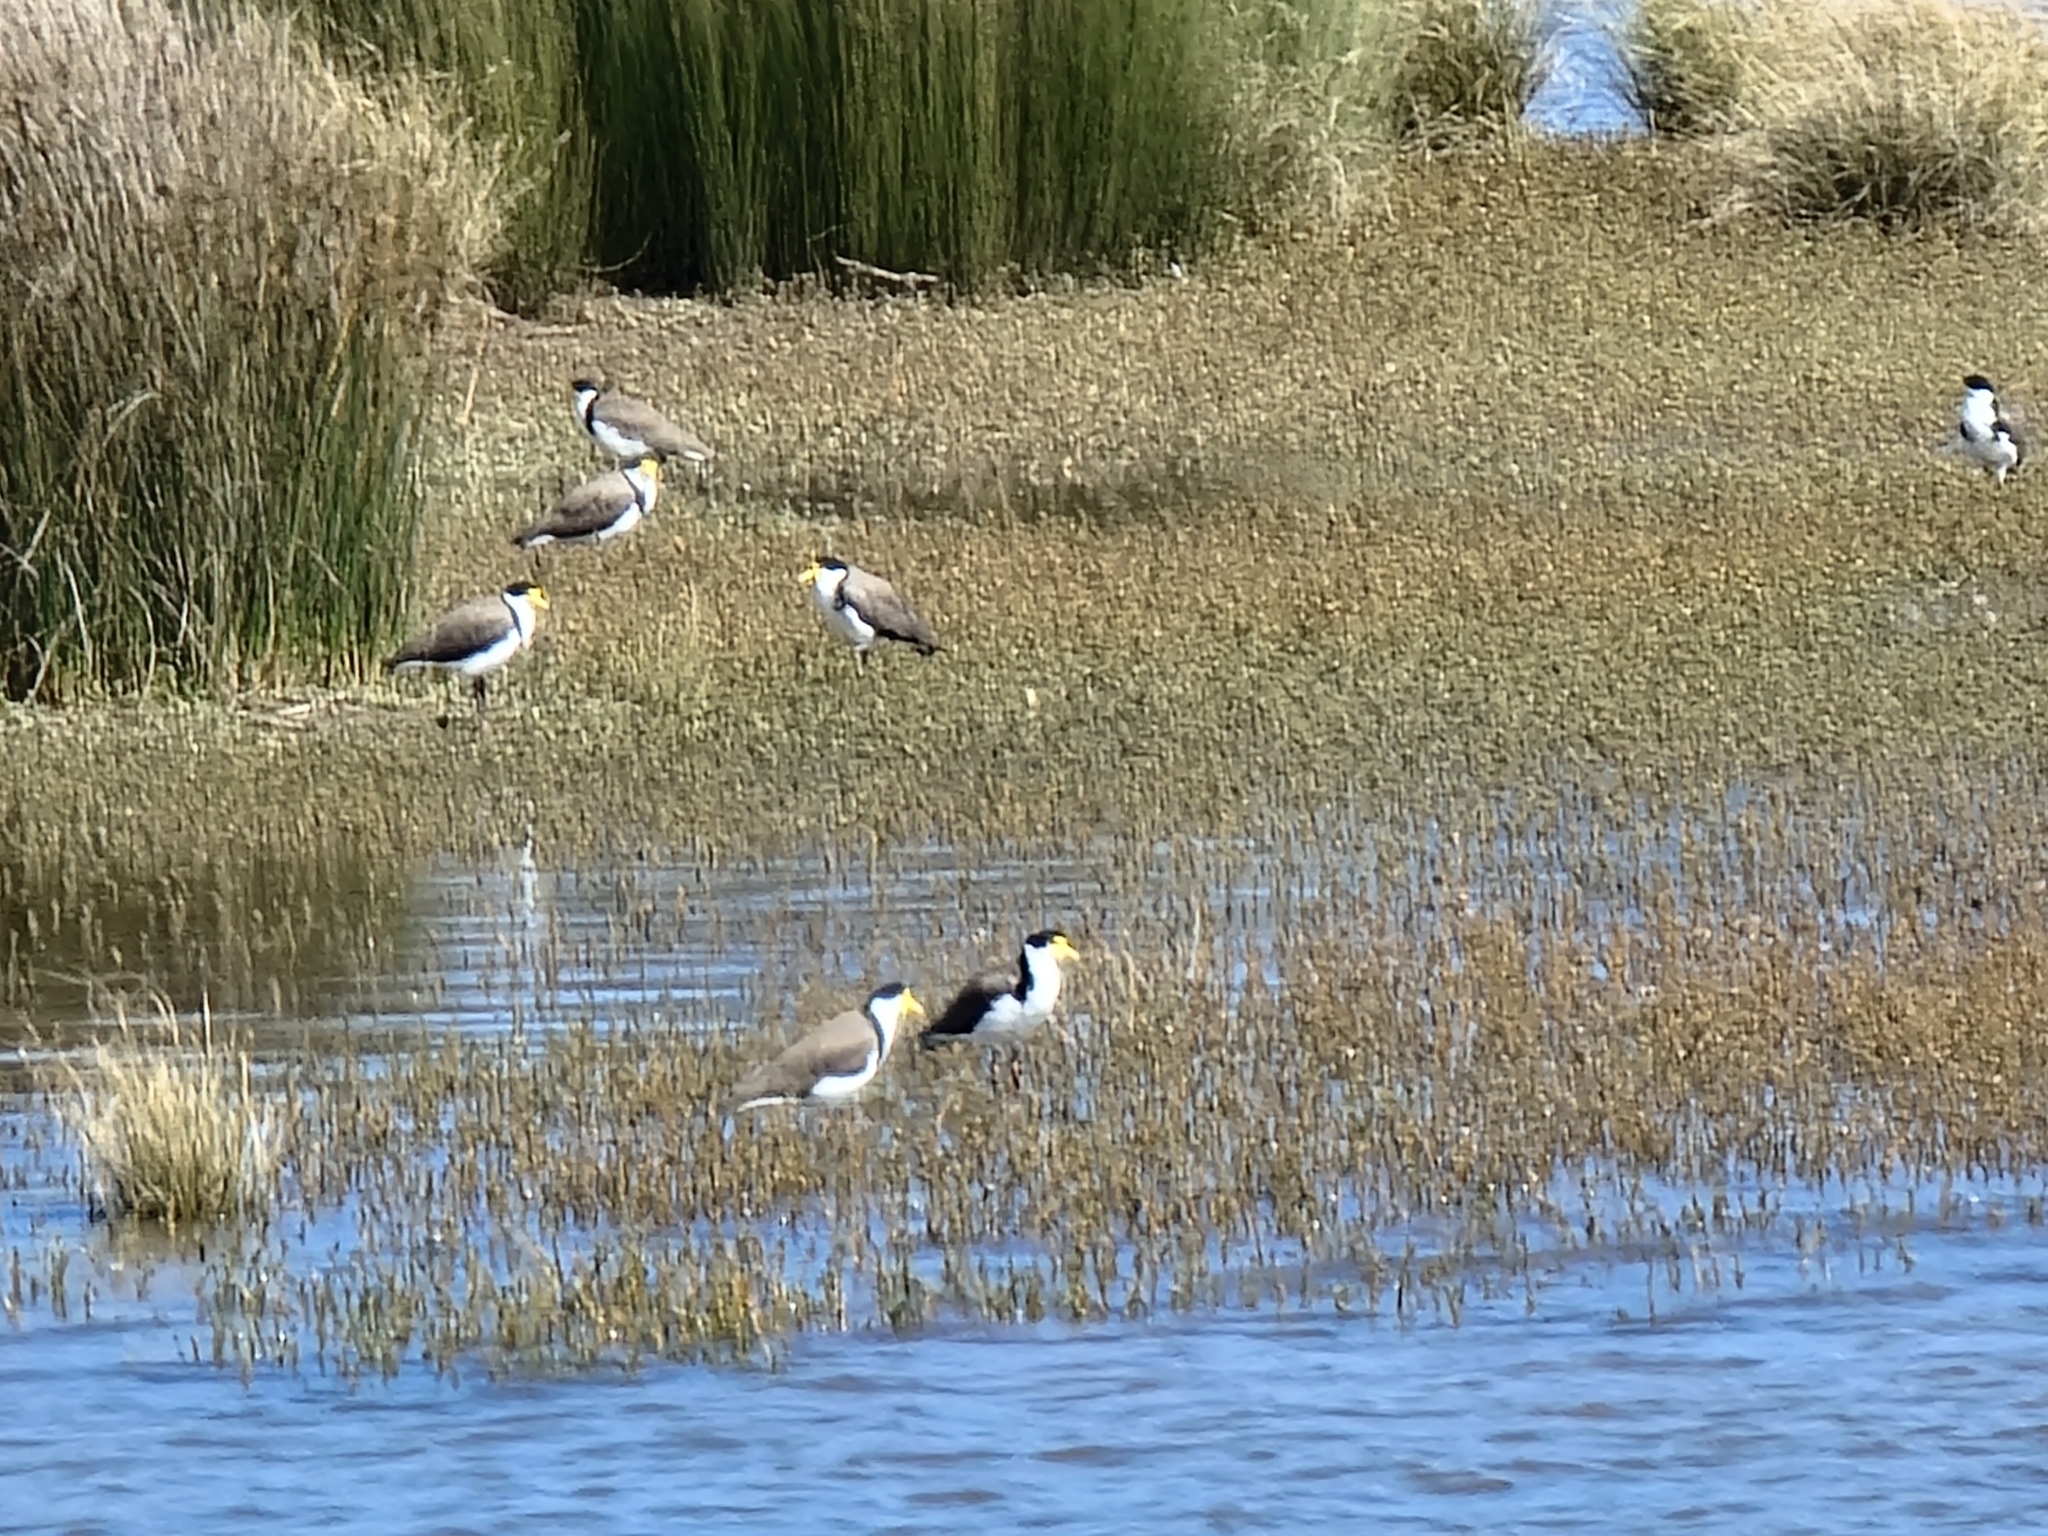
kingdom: Animalia
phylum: Chordata
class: Aves
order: Charadriiformes
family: Charadriidae
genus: Vanellus
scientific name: Vanellus miles
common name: Masked lapwing
